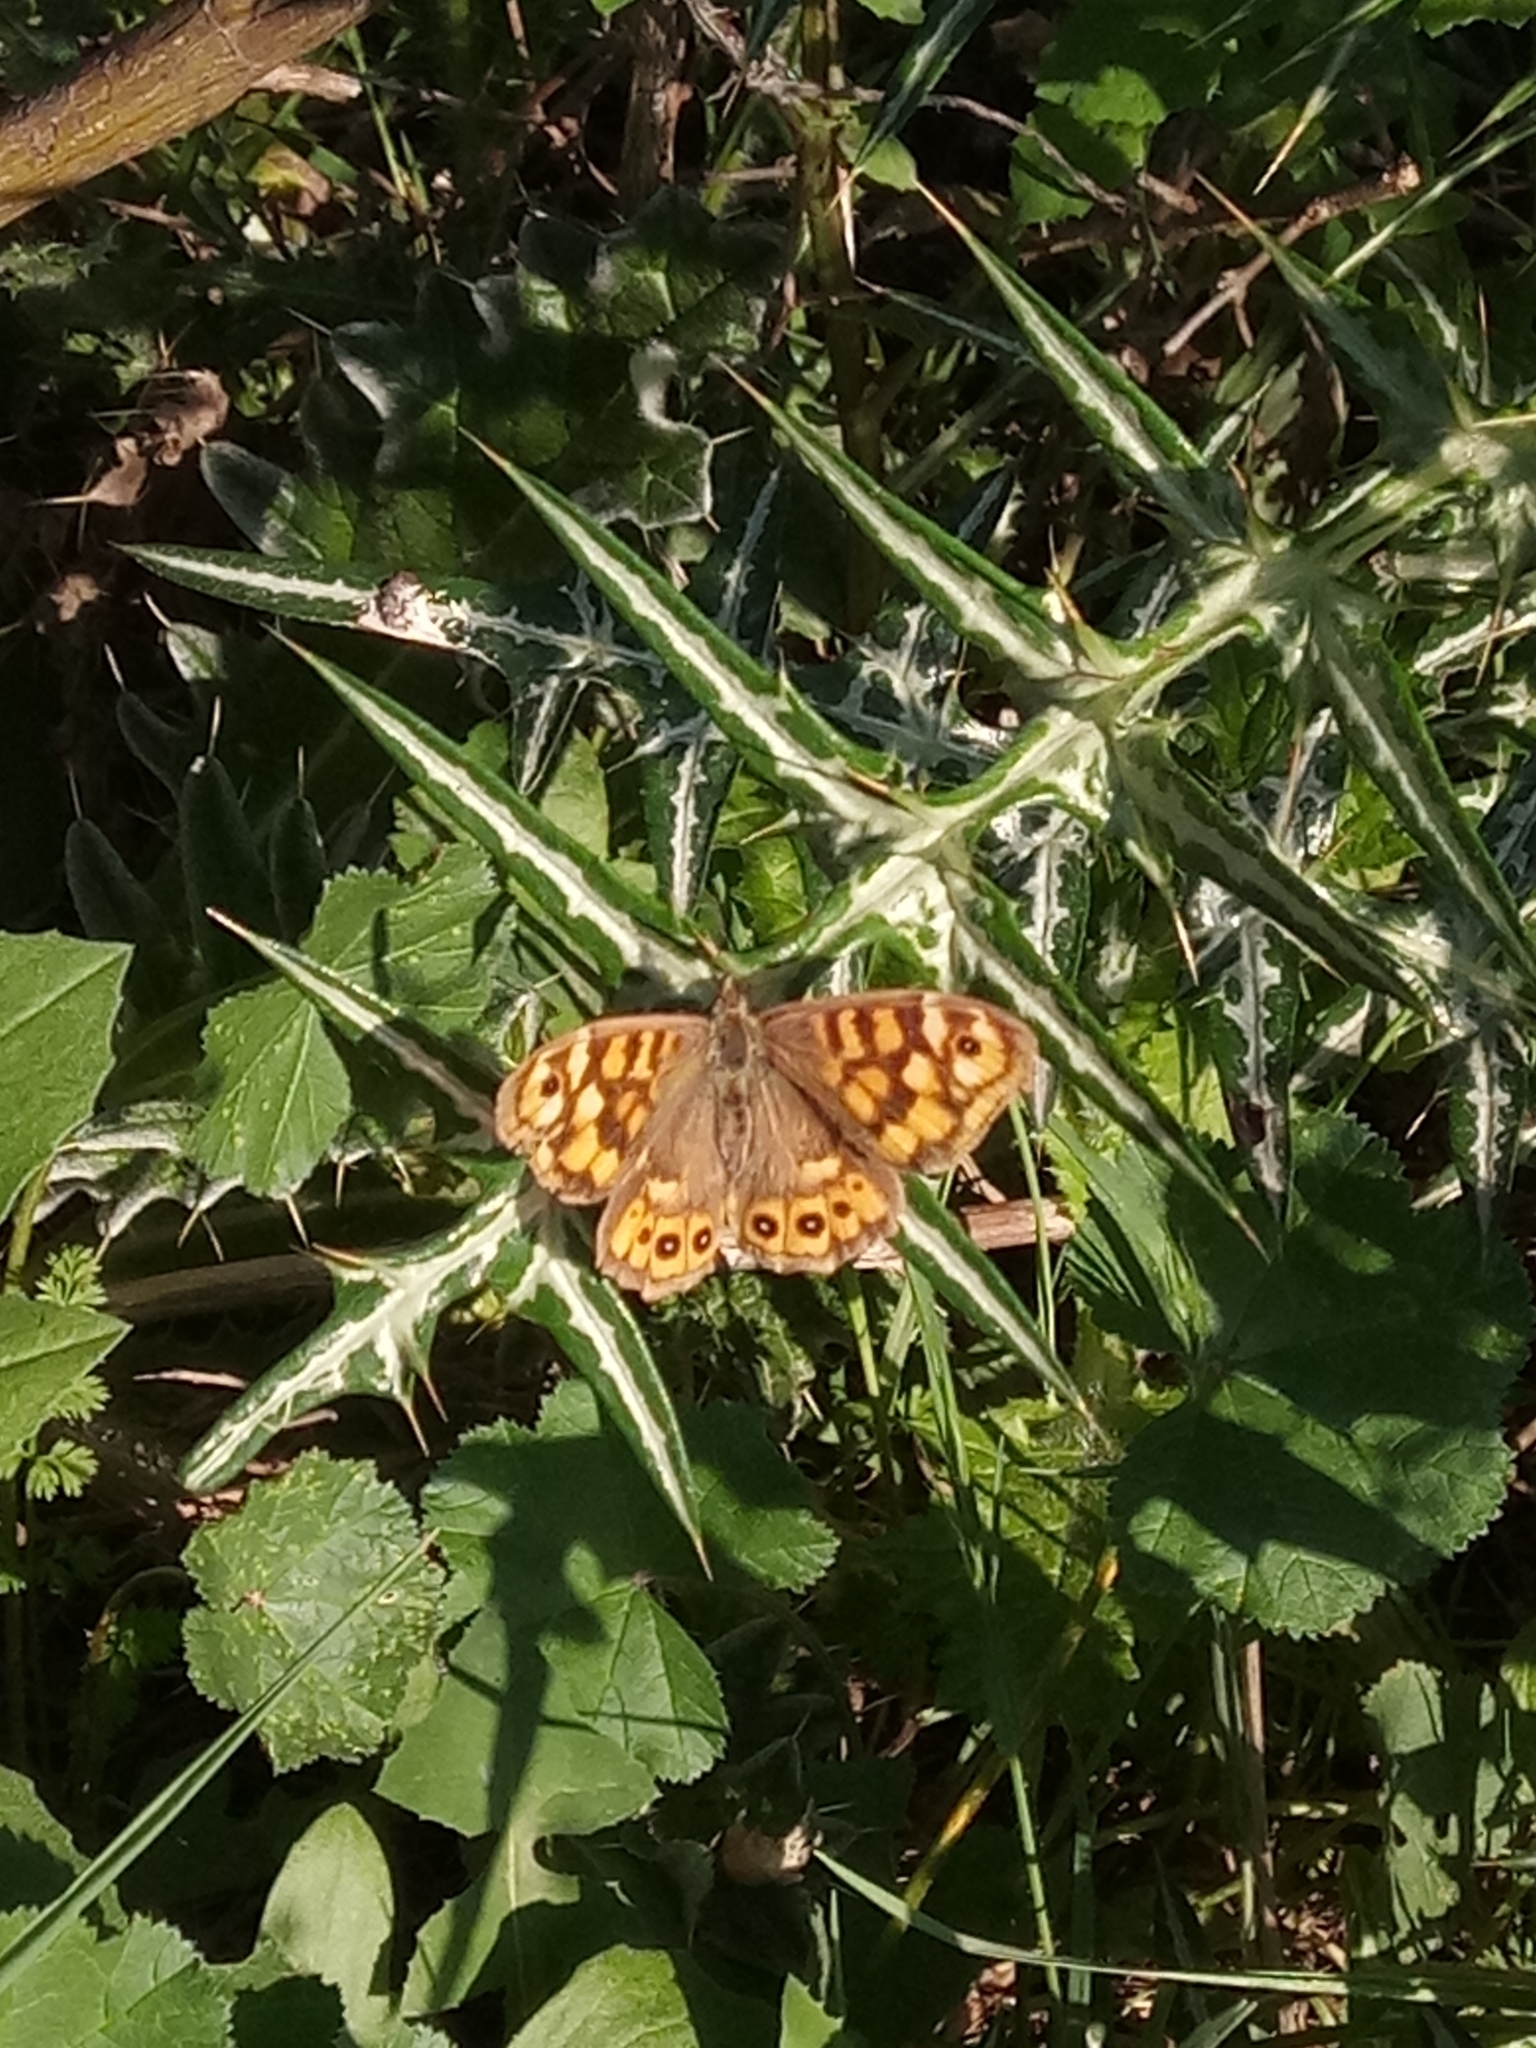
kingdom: Animalia
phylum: Arthropoda
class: Insecta
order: Lepidoptera
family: Nymphalidae
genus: Pararge
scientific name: Pararge aegeria
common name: Speckled wood
